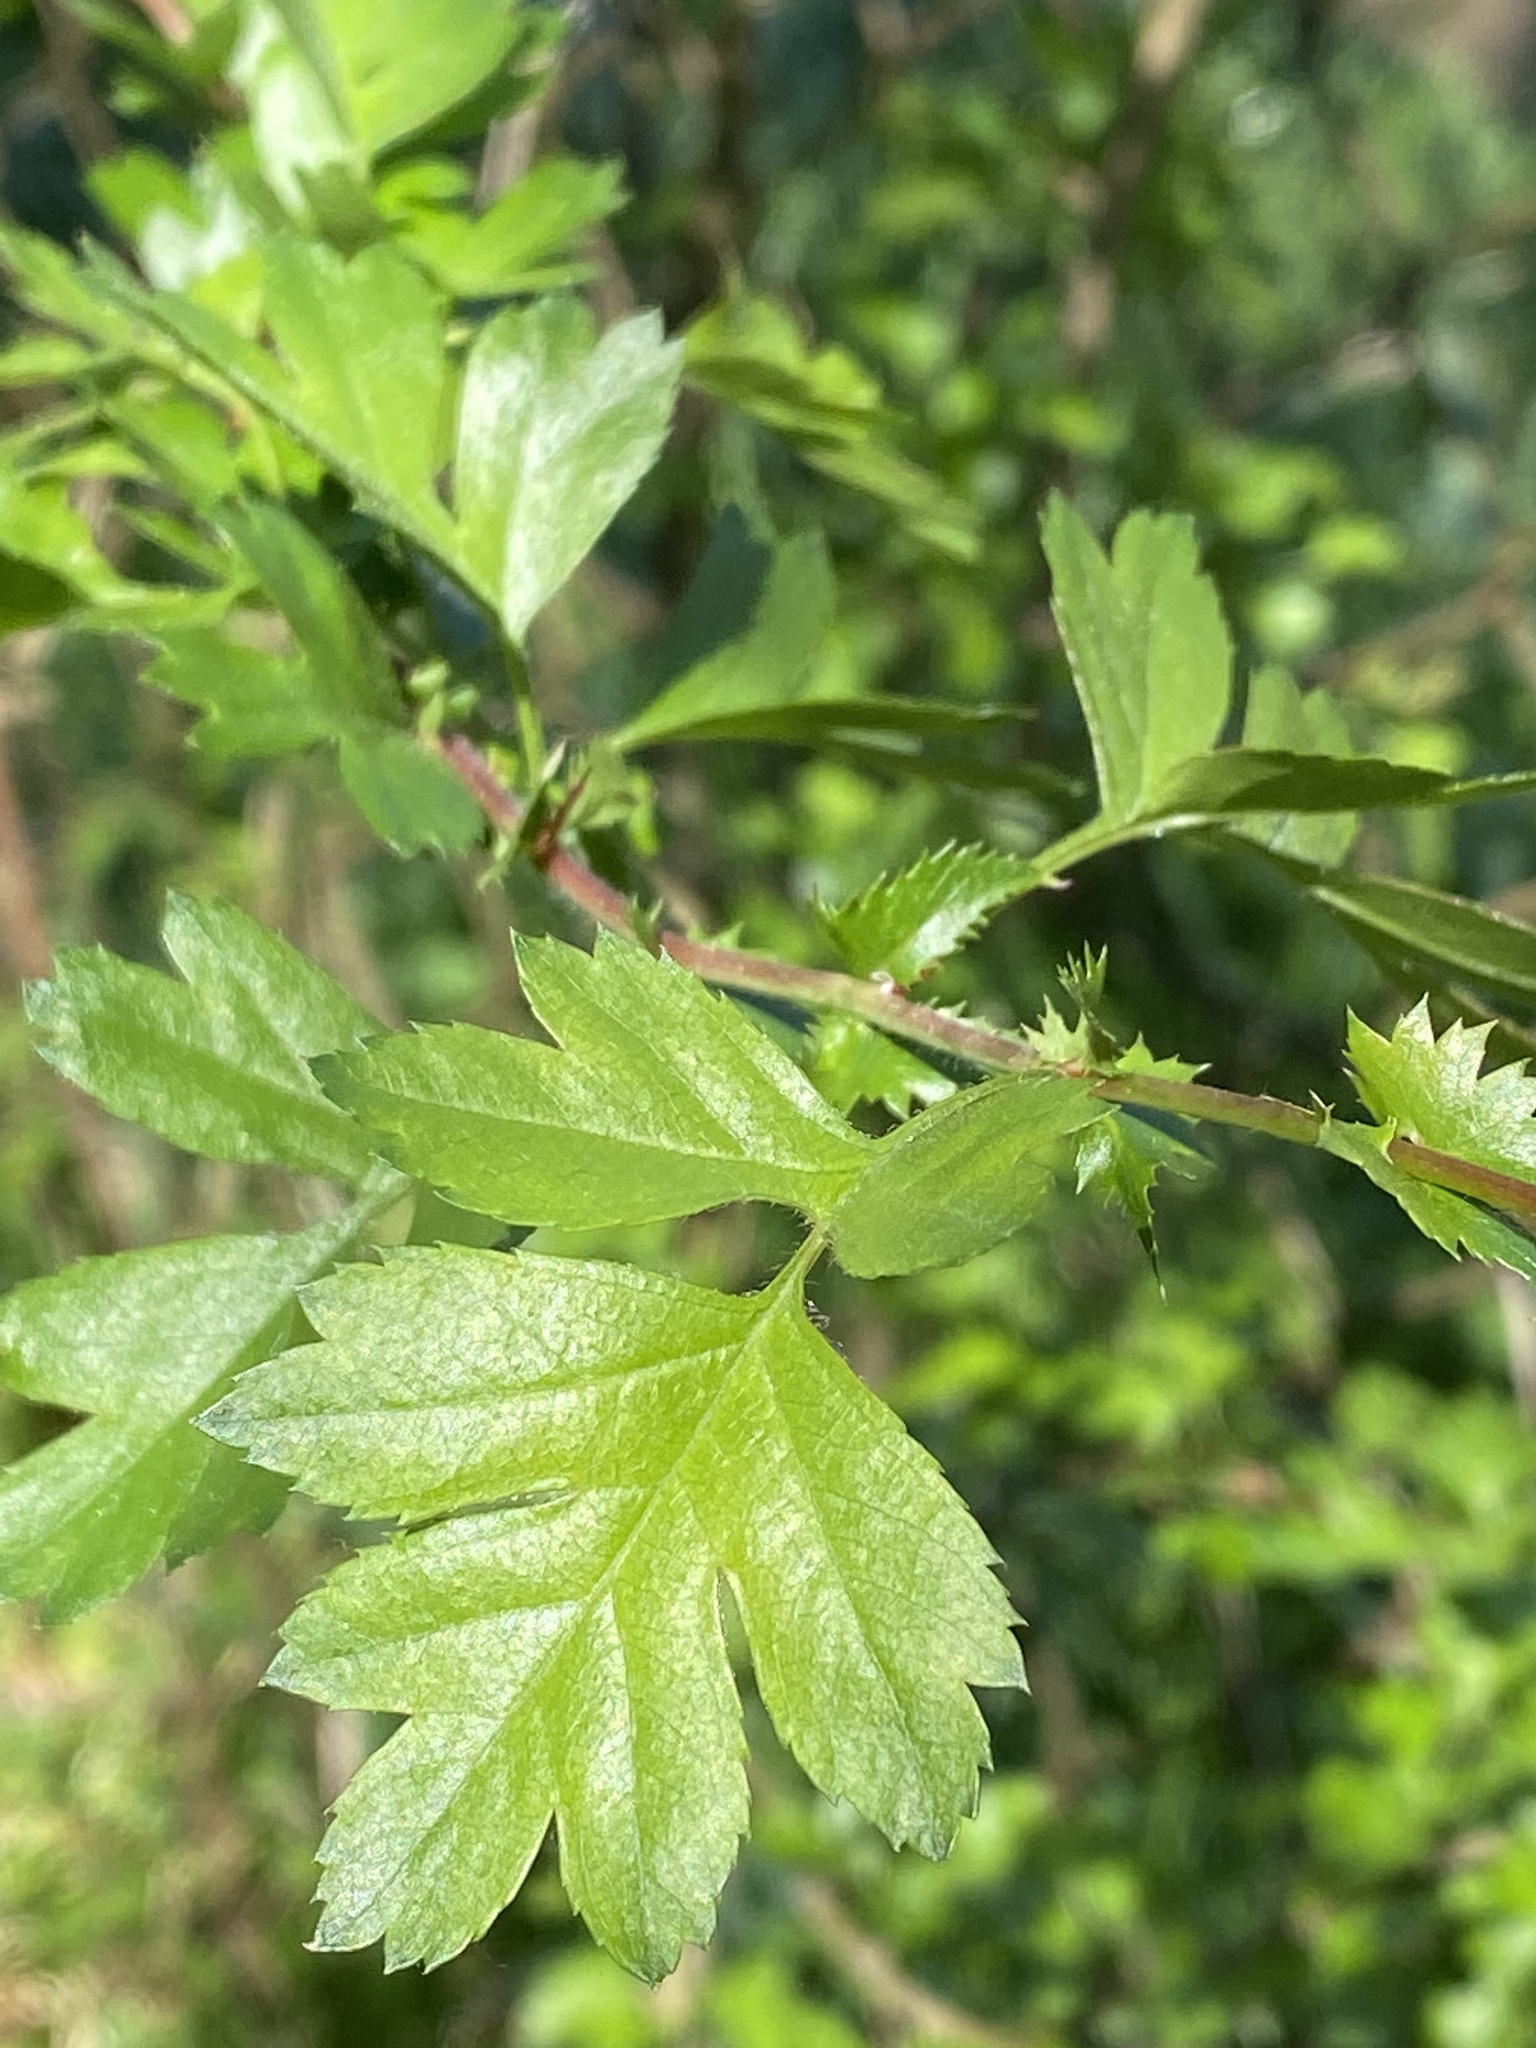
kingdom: Plantae
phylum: Tracheophyta
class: Magnoliopsida
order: Rosales
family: Rosaceae
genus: Crataegus
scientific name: Crataegus monogyna
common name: Hawthorn
